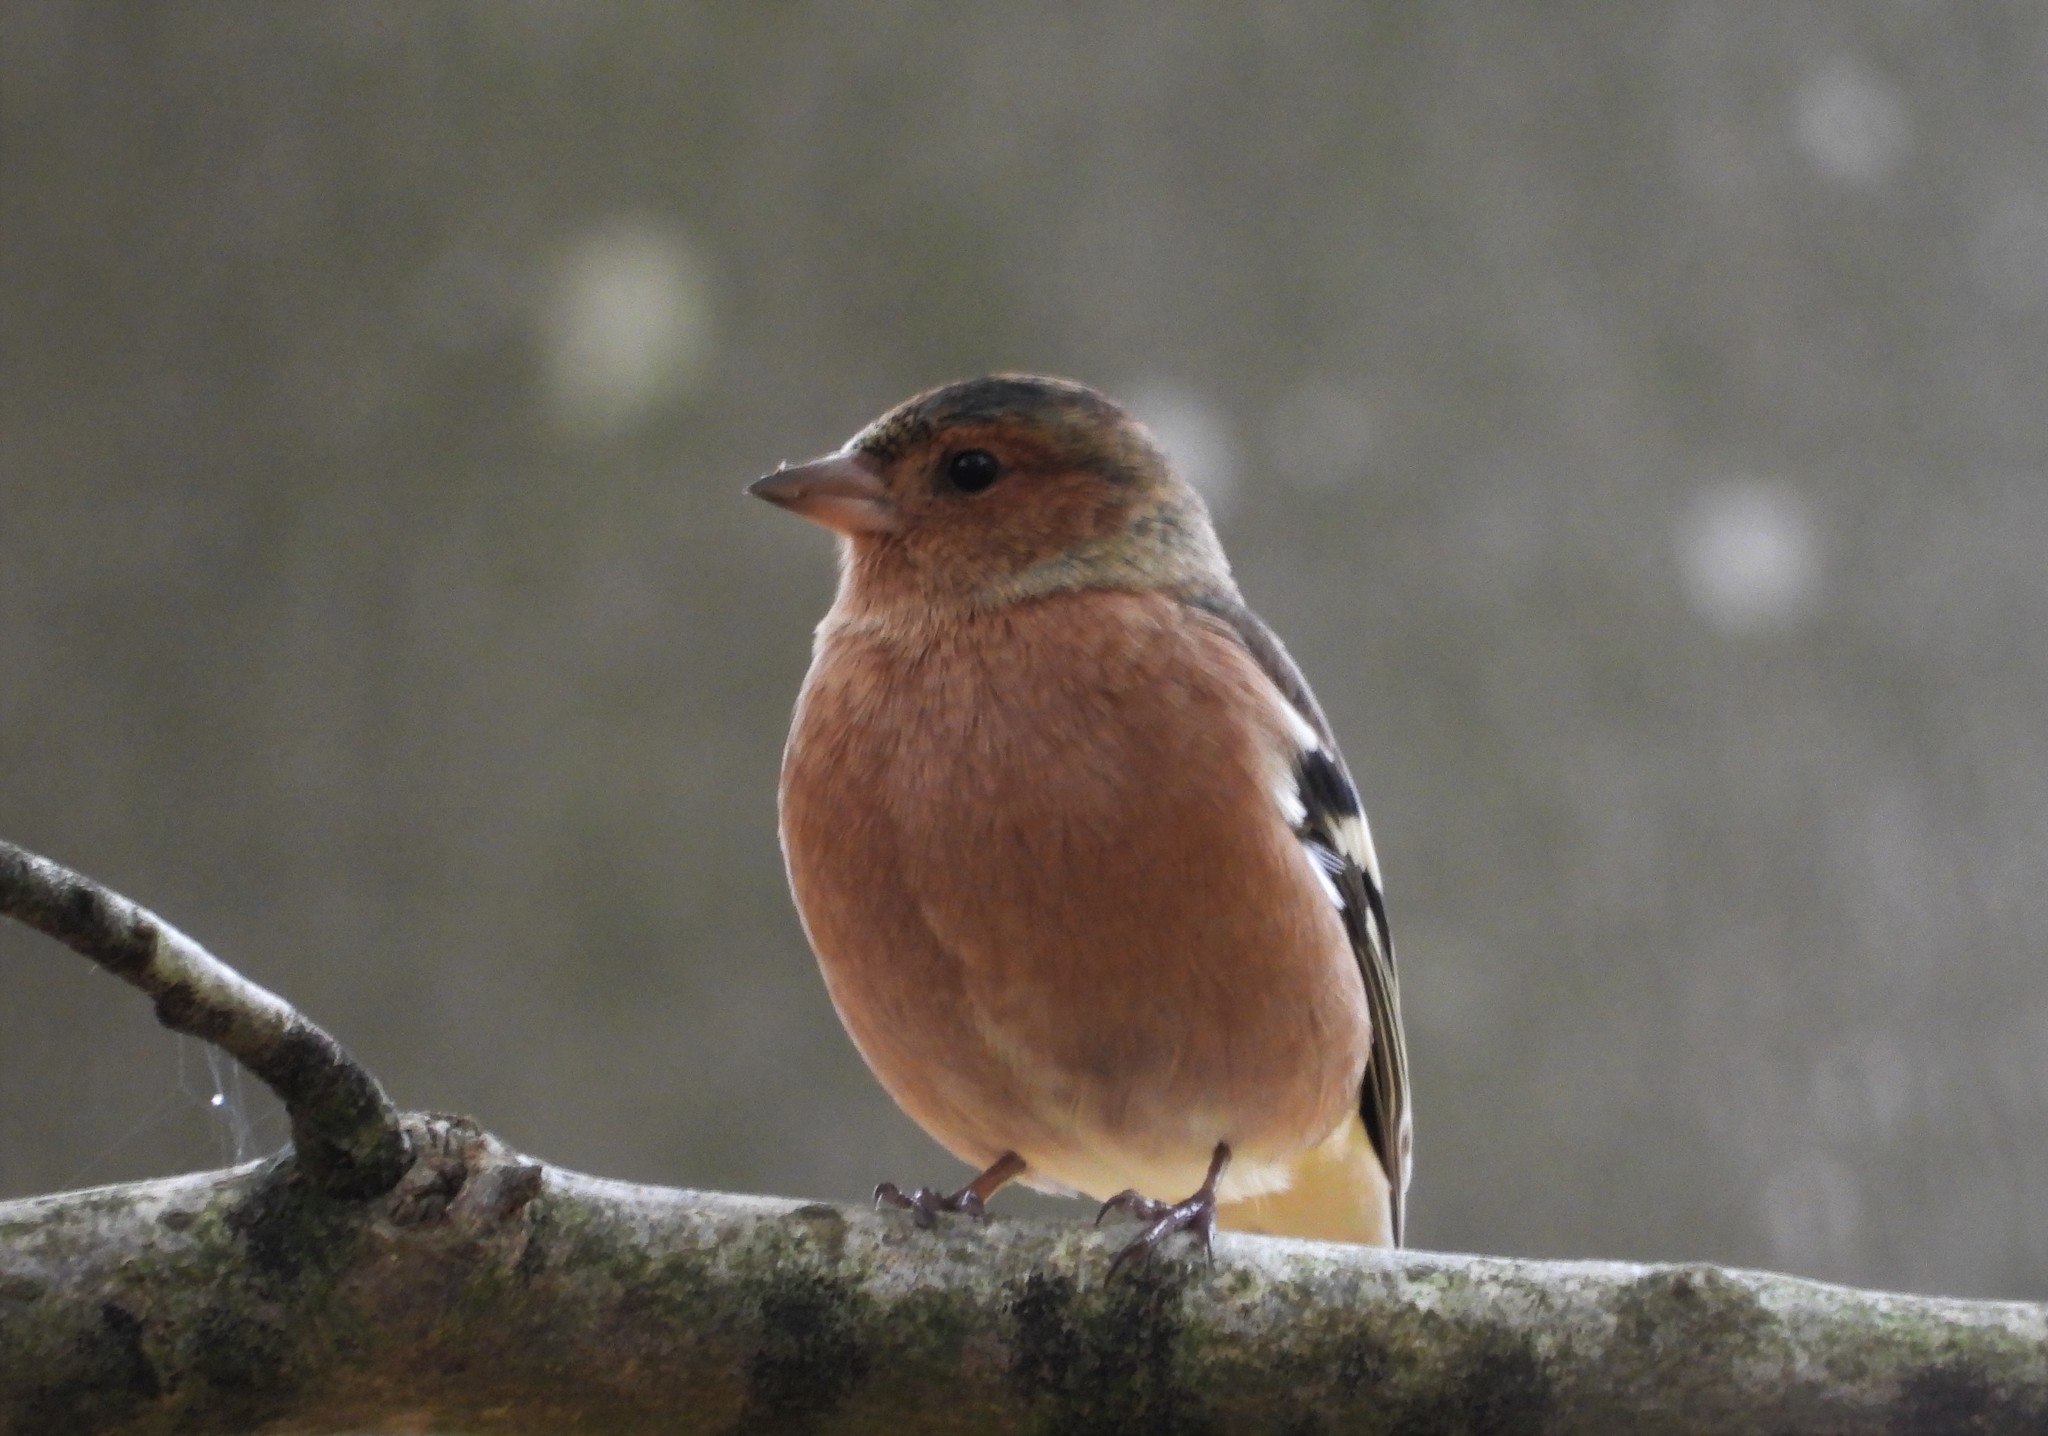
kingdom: Animalia
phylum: Chordata
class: Aves
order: Passeriformes
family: Fringillidae
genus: Fringilla
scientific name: Fringilla coelebs
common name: Common chaffinch
